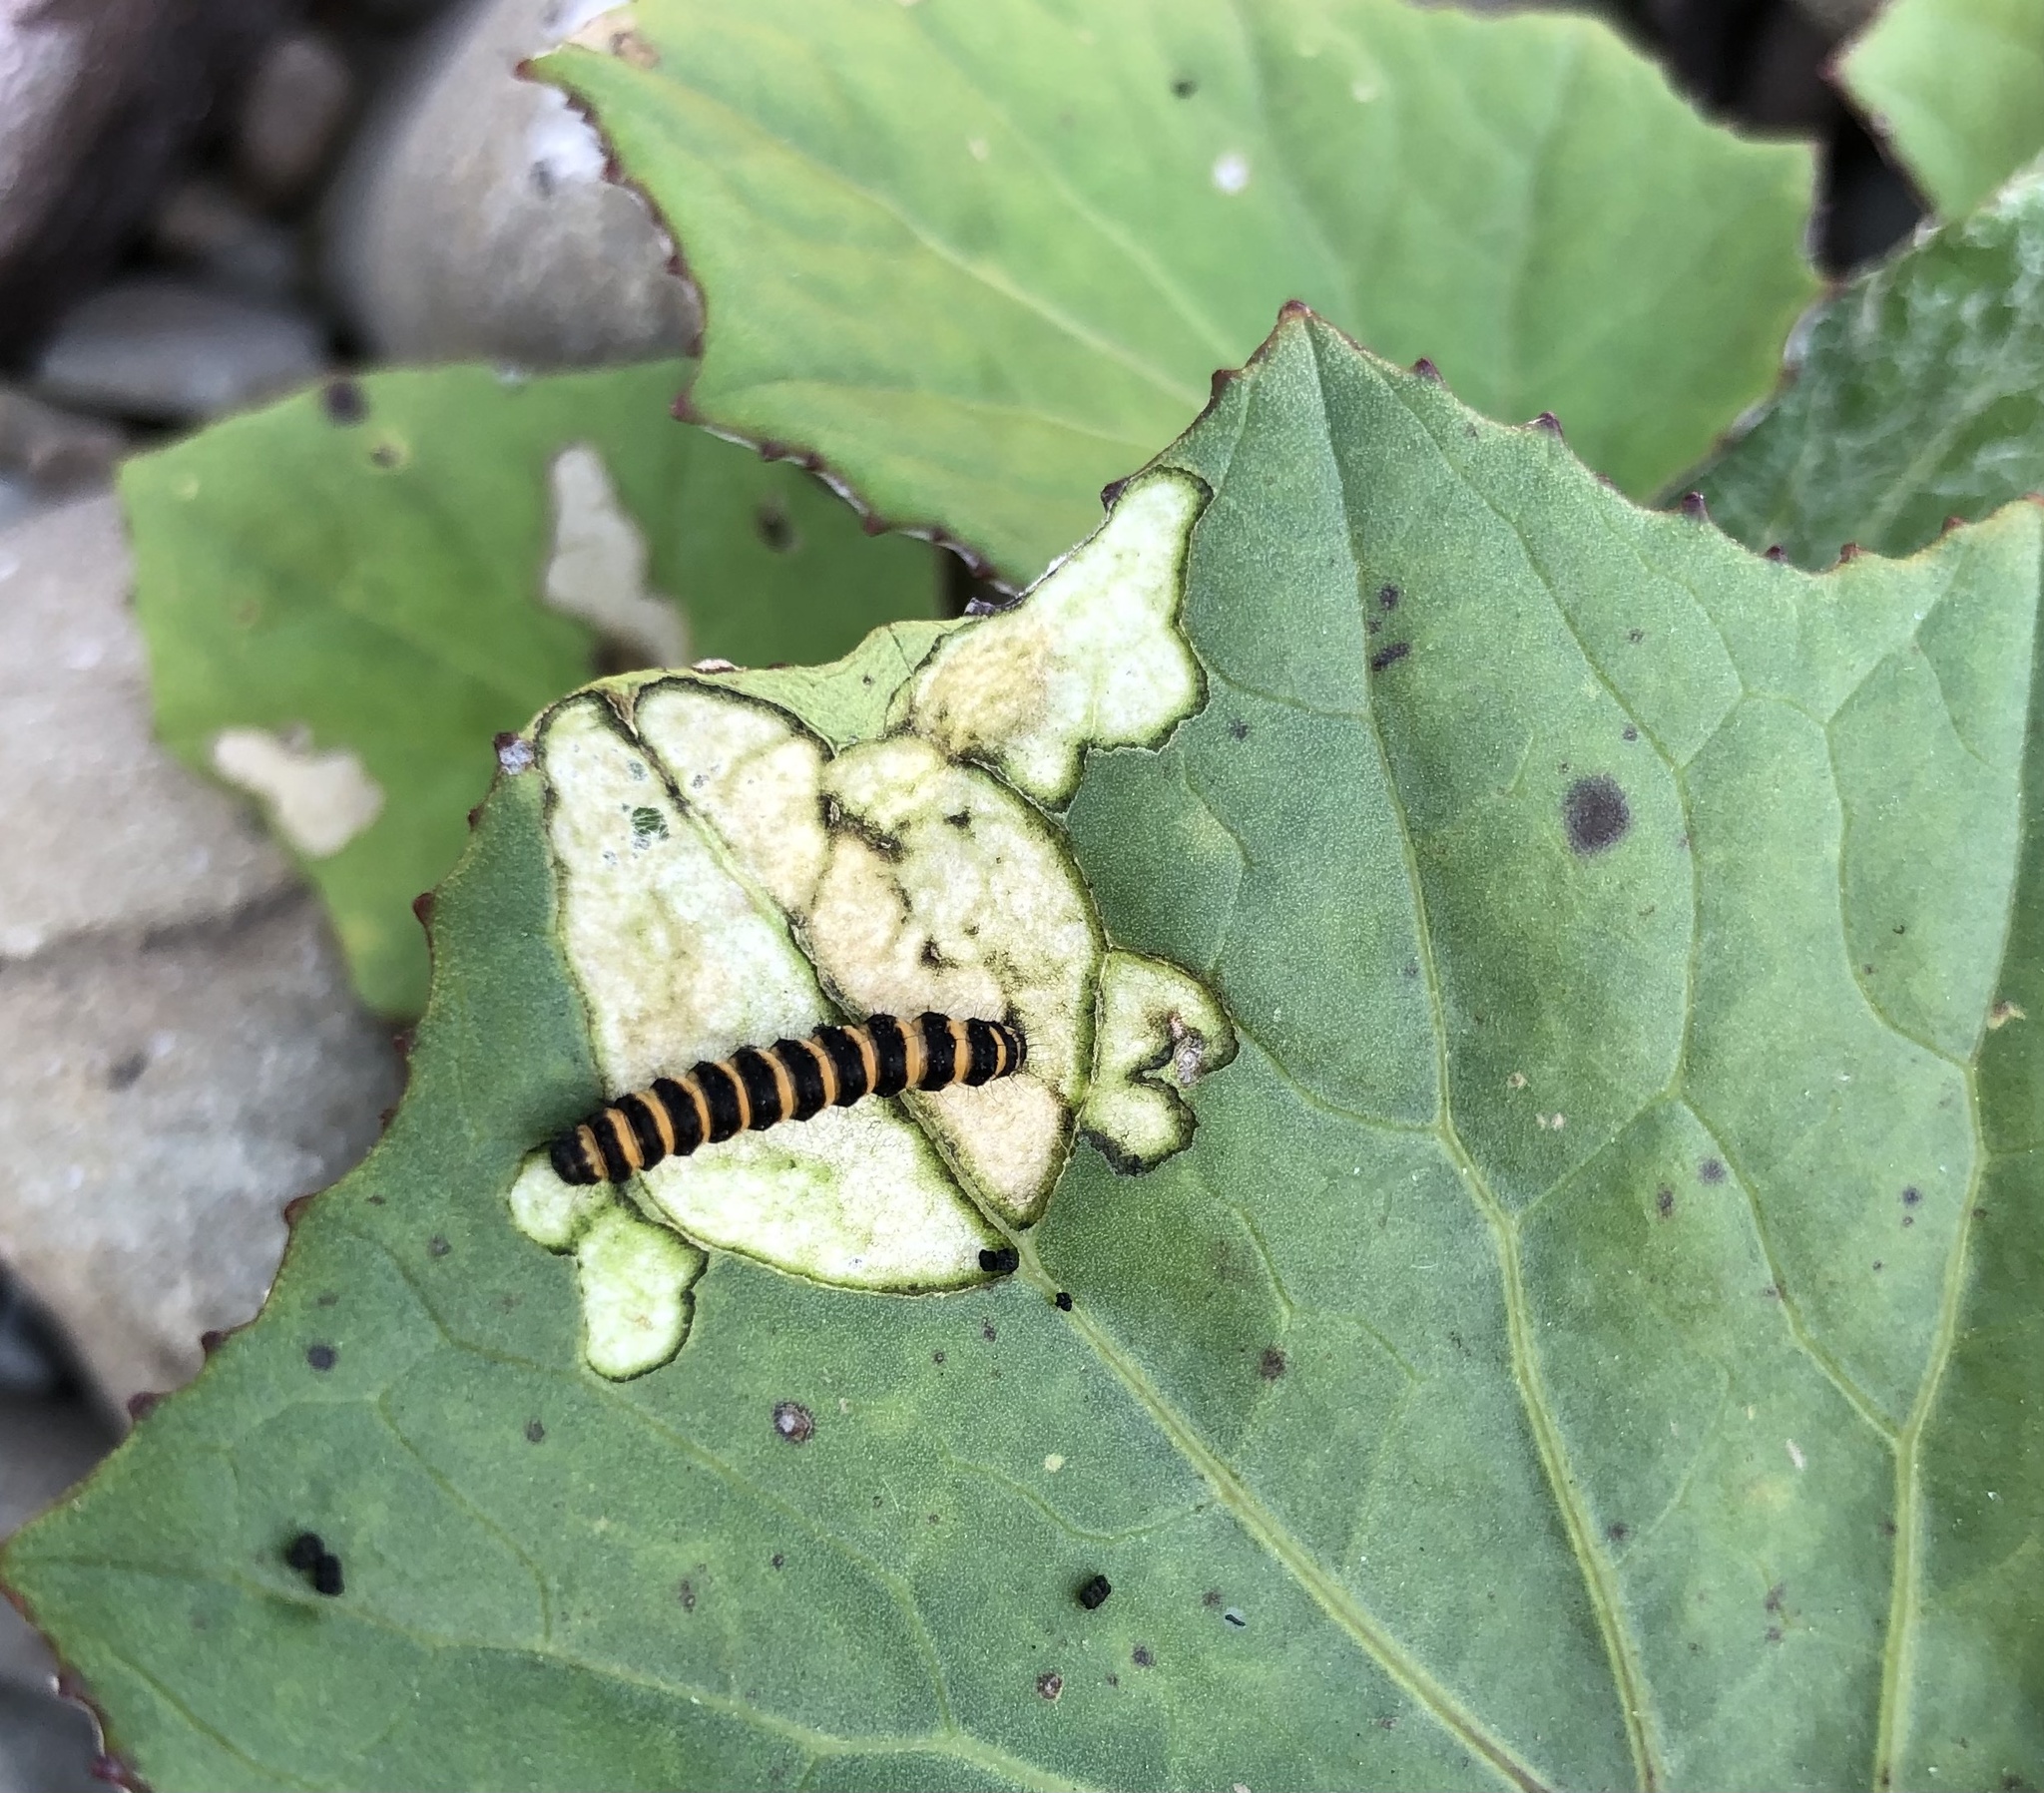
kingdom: Animalia
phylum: Arthropoda
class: Insecta
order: Lepidoptera
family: Erebidae
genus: Tyria
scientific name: Tyria jacobaeae
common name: Cinnabar
